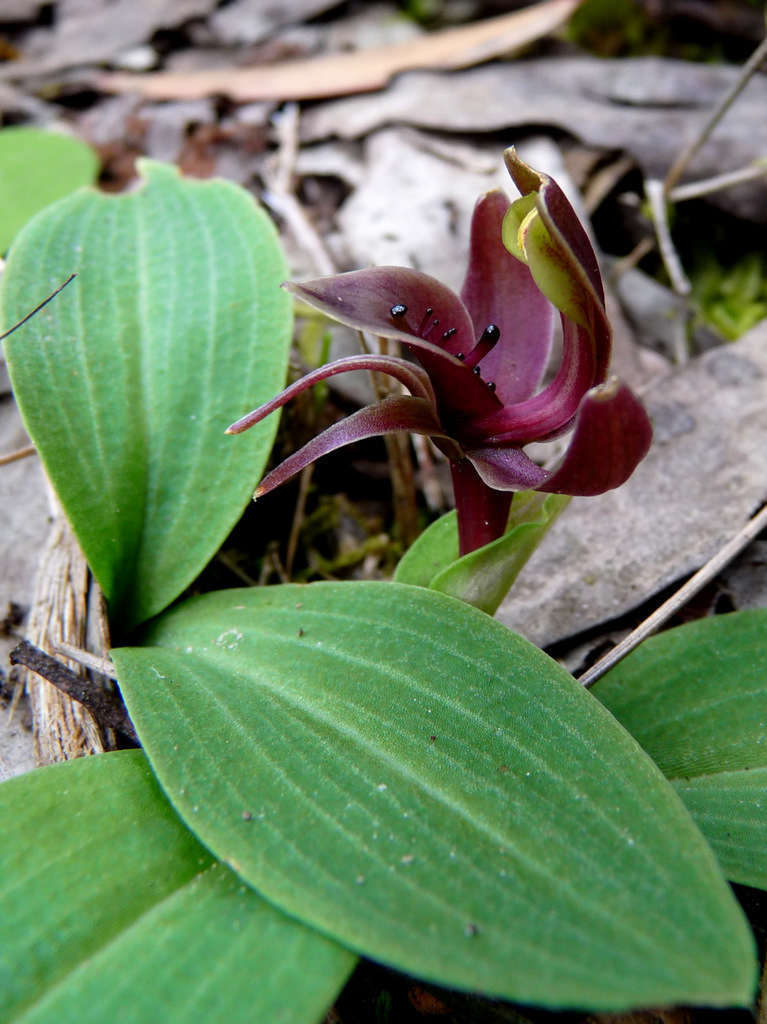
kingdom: Plantae
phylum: Tracheophyta
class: Liliopsida
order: Asparagales
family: Orchidaceae
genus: Chiloglottis
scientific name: Chiloglottis valida
